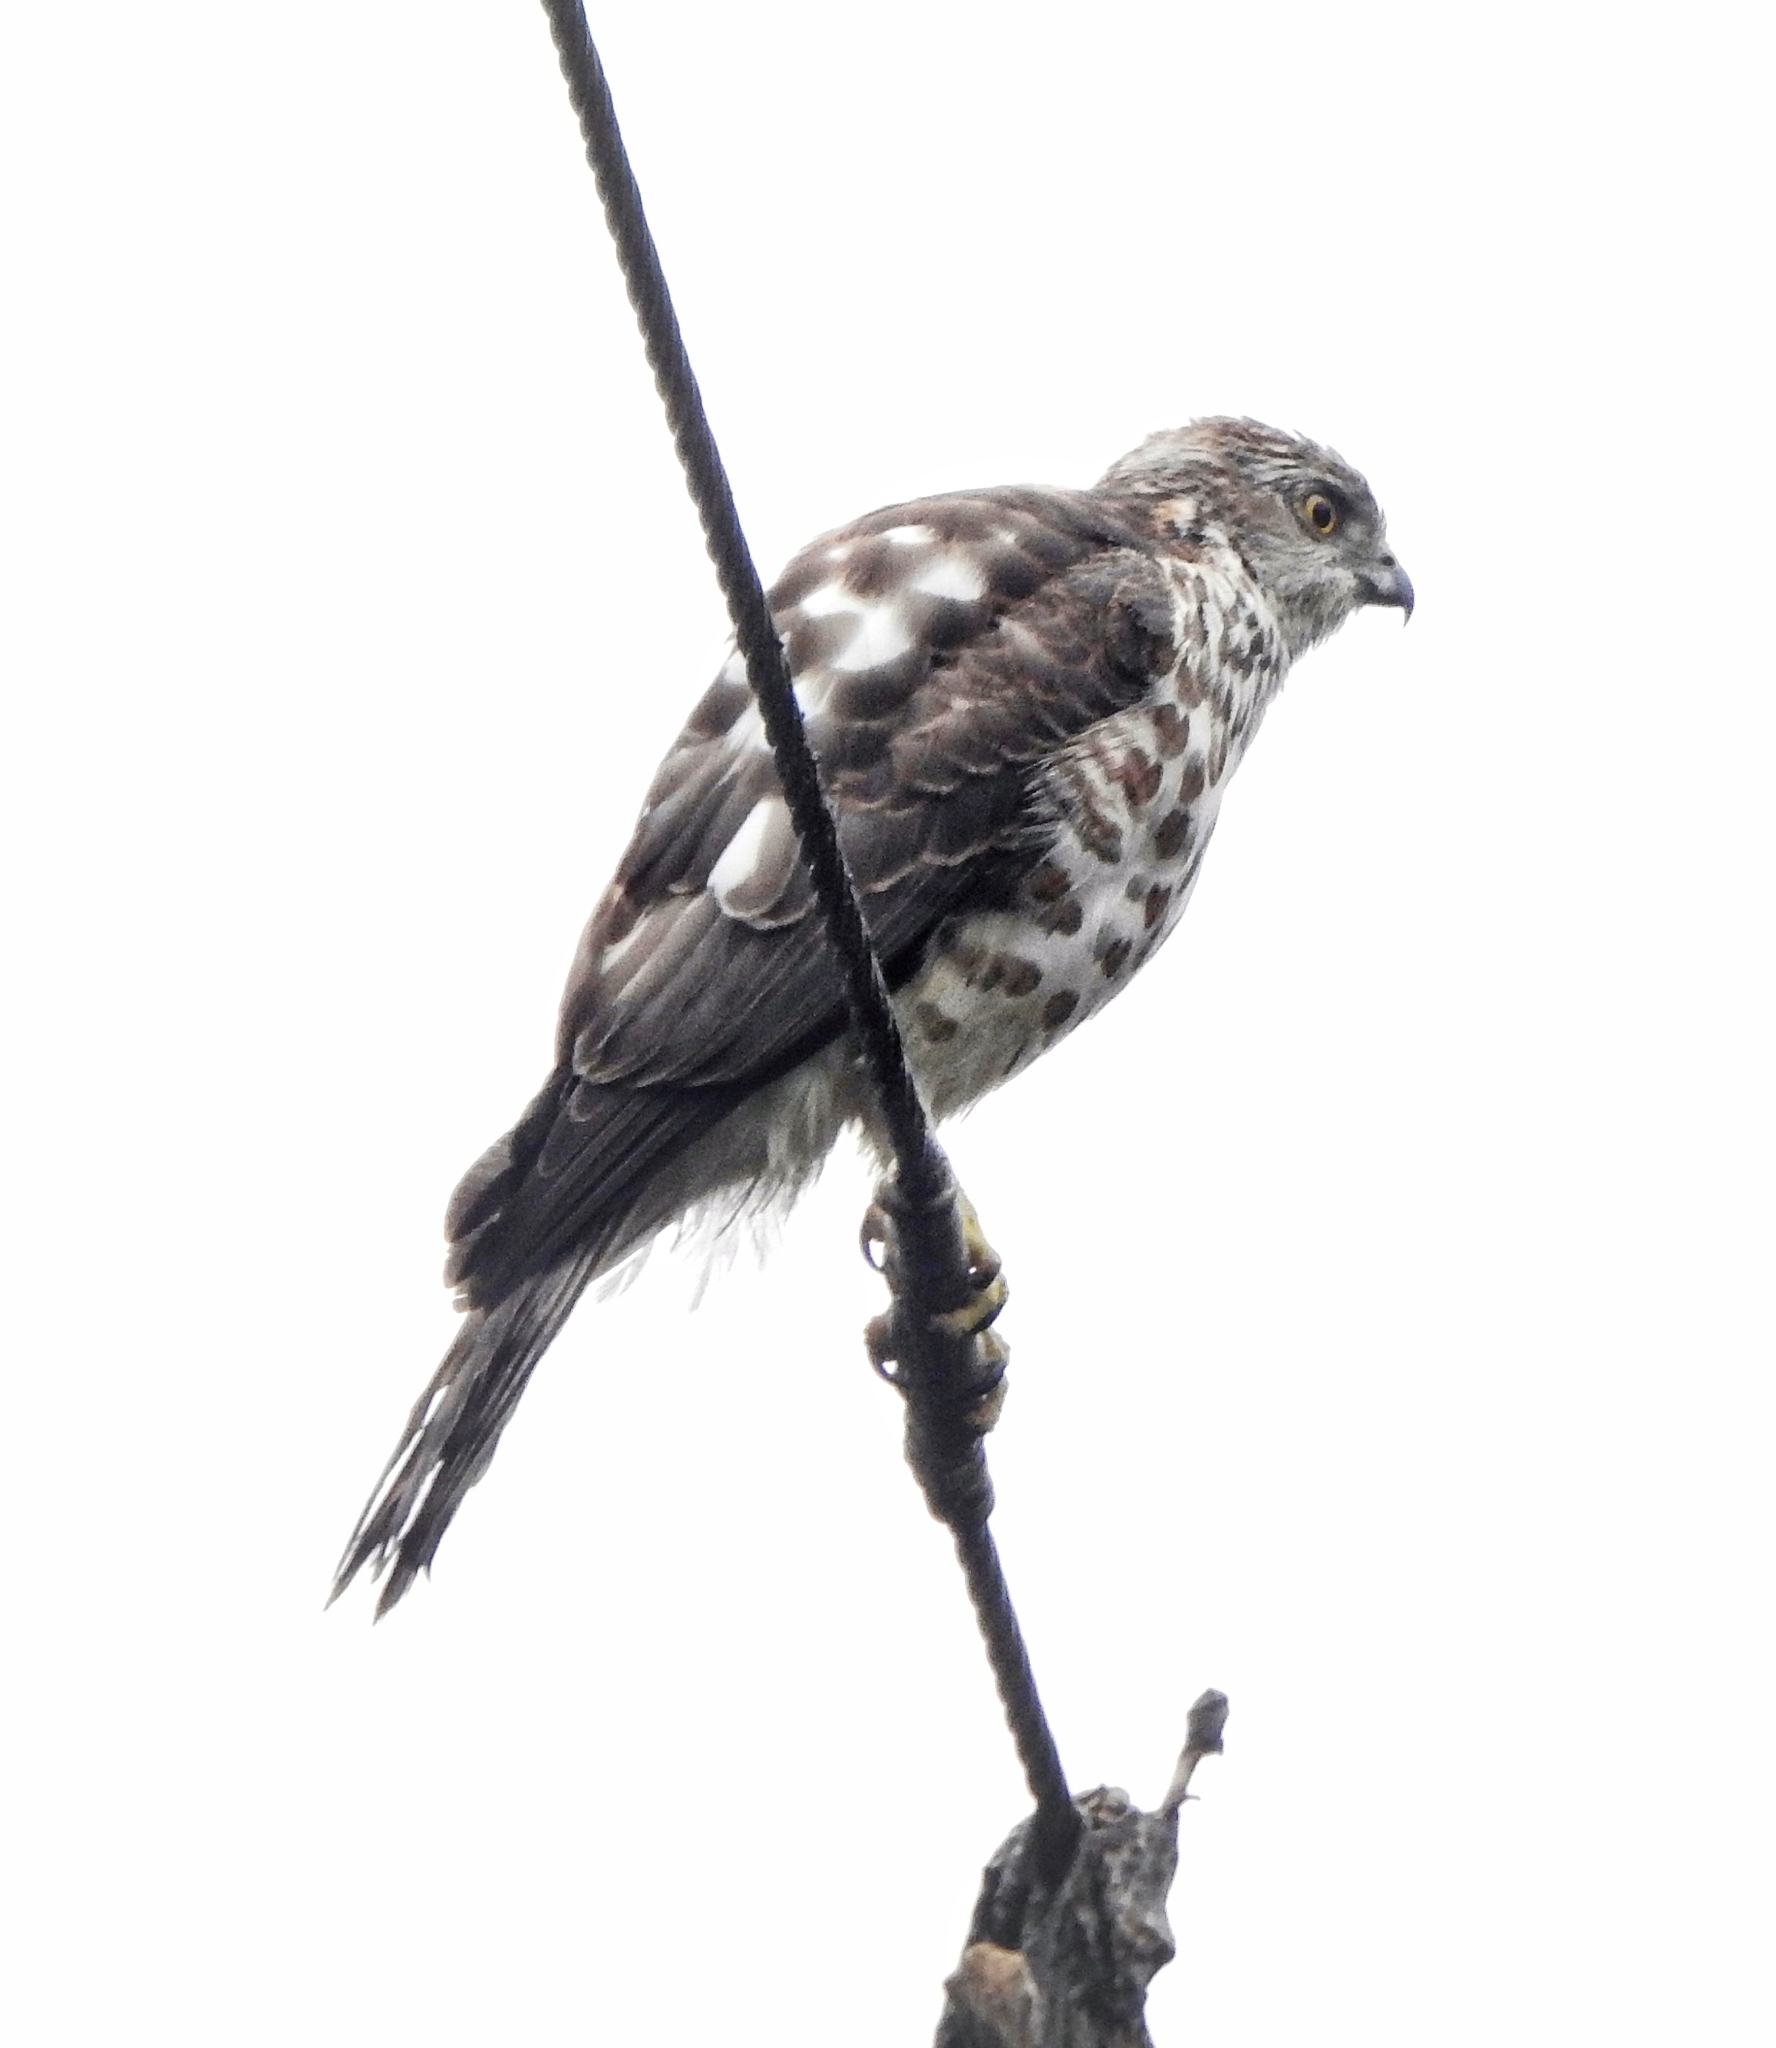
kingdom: Animalia
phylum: Chordata
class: Aves
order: Accipitriformes
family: Accipitridae
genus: Accipiter
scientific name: Accipiter badius
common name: Shikra
